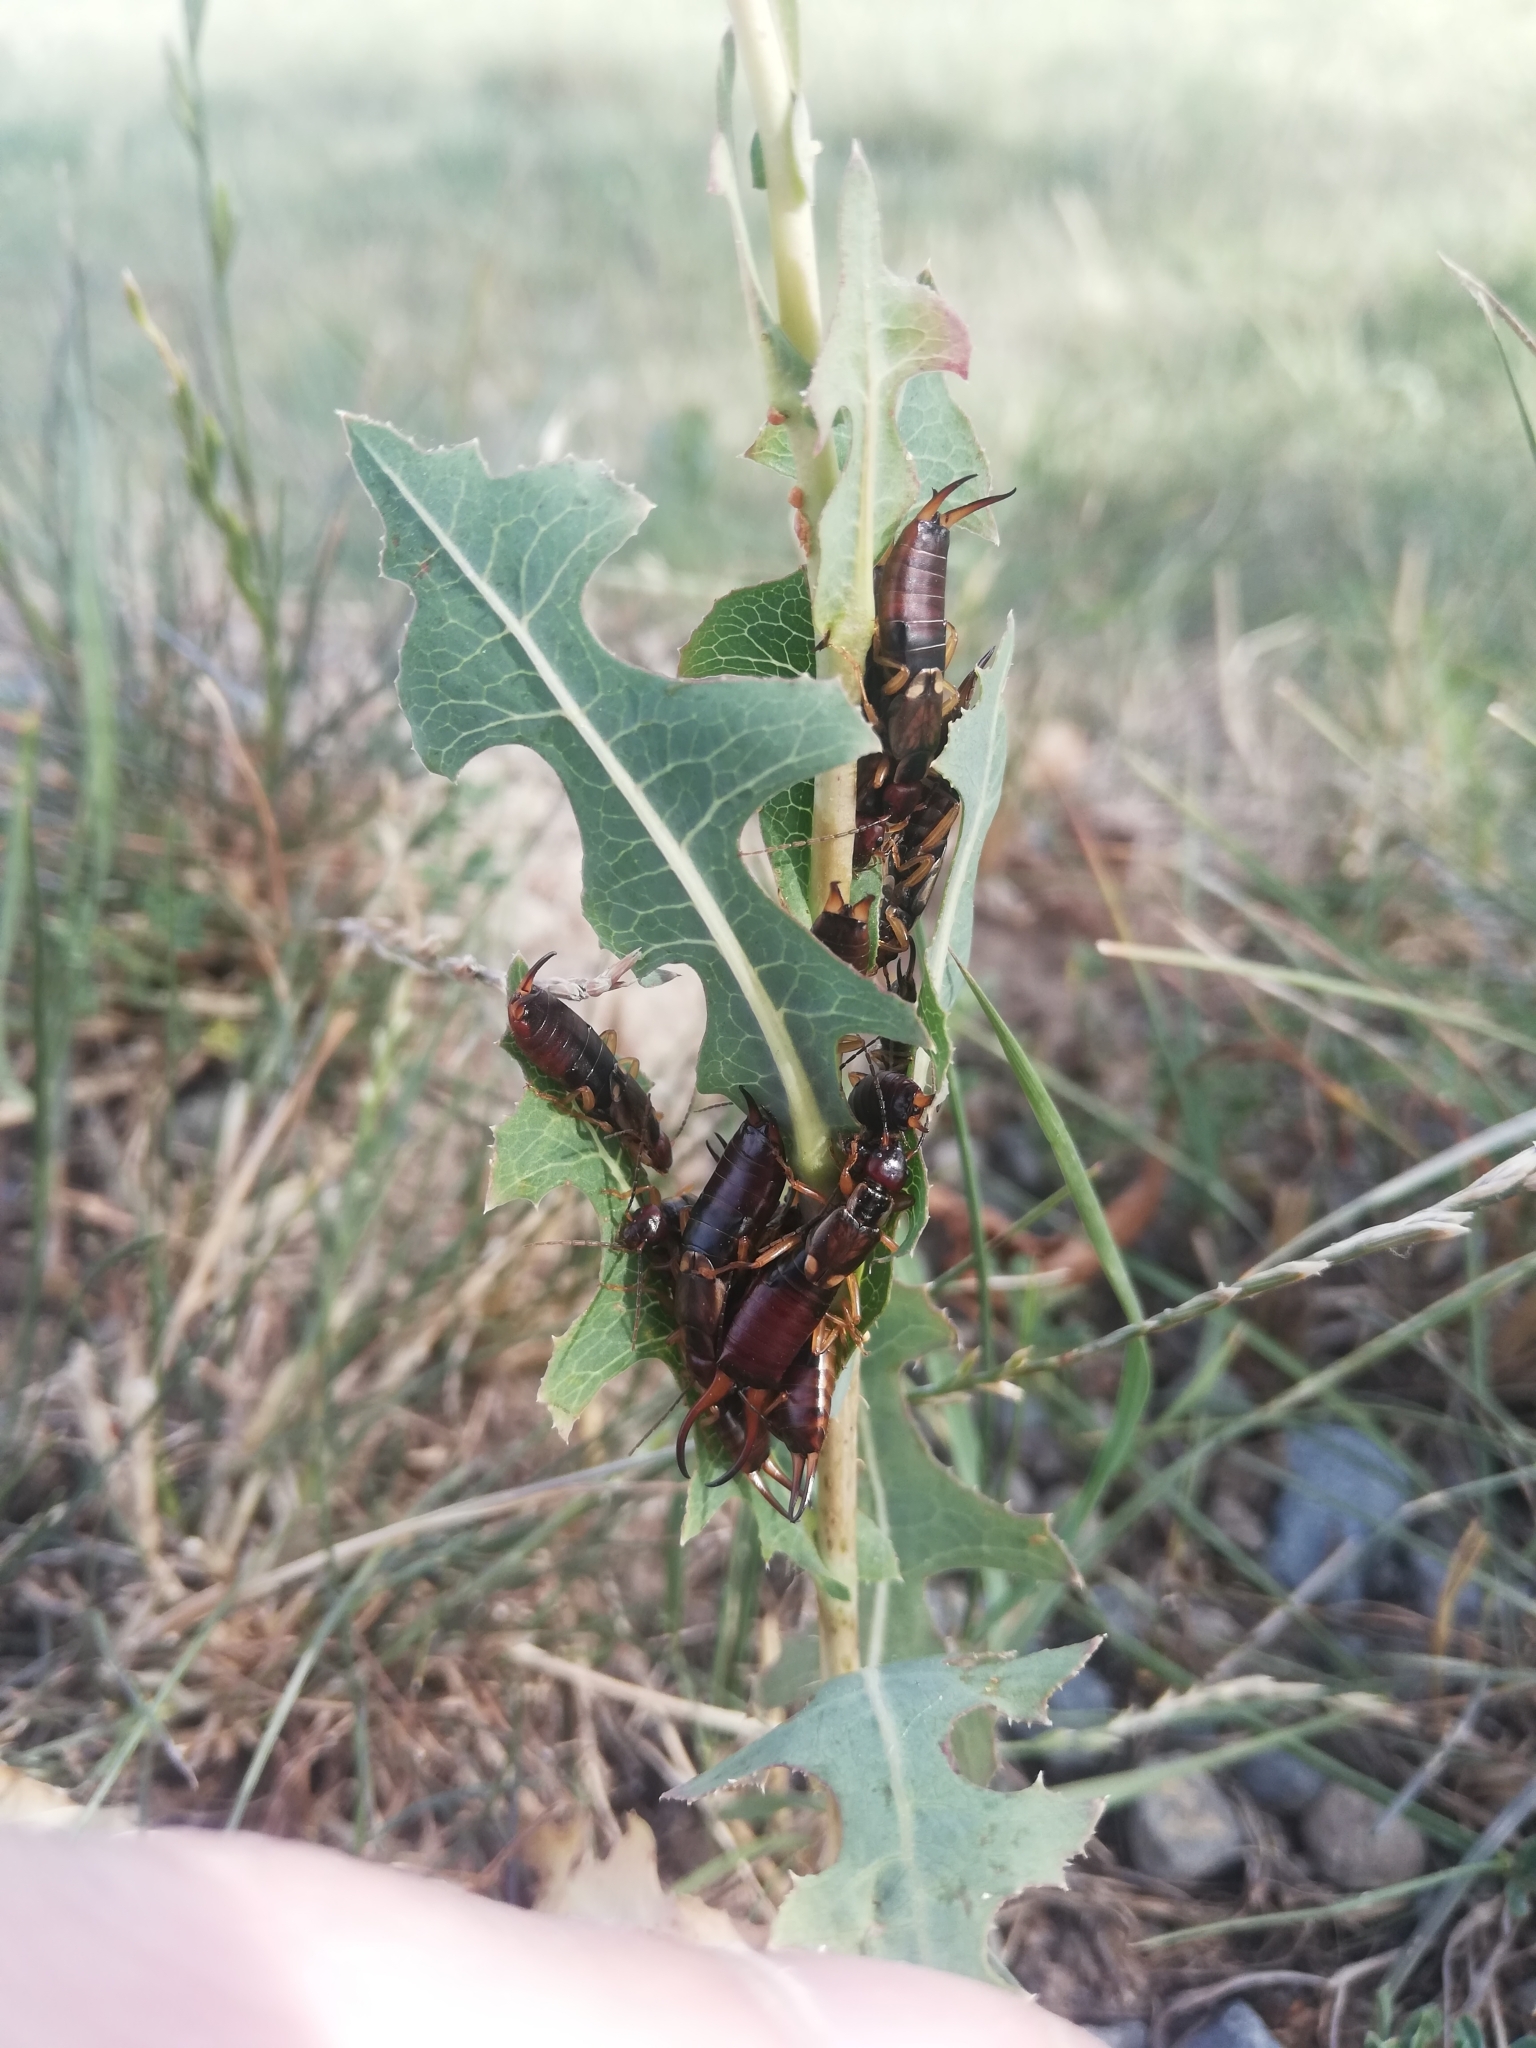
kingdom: Animalia
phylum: Arthropoda
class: Insecta
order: Dermaptera
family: Forficulidae
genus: Forficula
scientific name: Forficula
